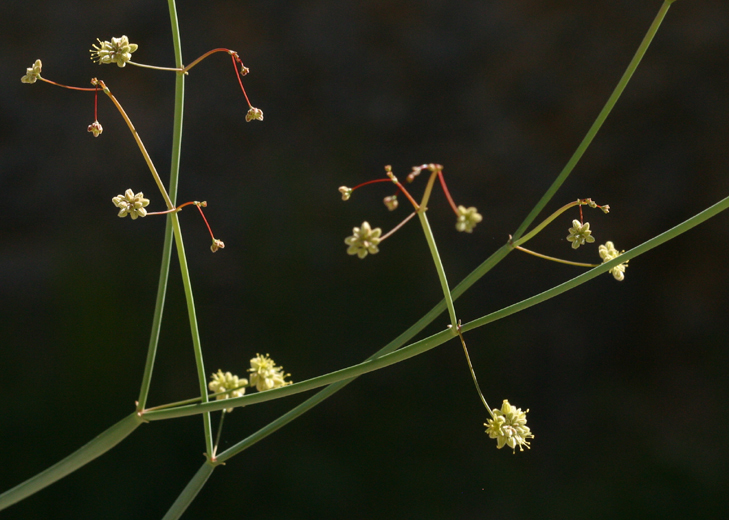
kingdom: Plantae
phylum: Tracheophyta
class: Magnoliopsida
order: Caryophyllales
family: Polygonaceae
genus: Eriogonum
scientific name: Eriogonum inflatum
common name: Desert trumpet
